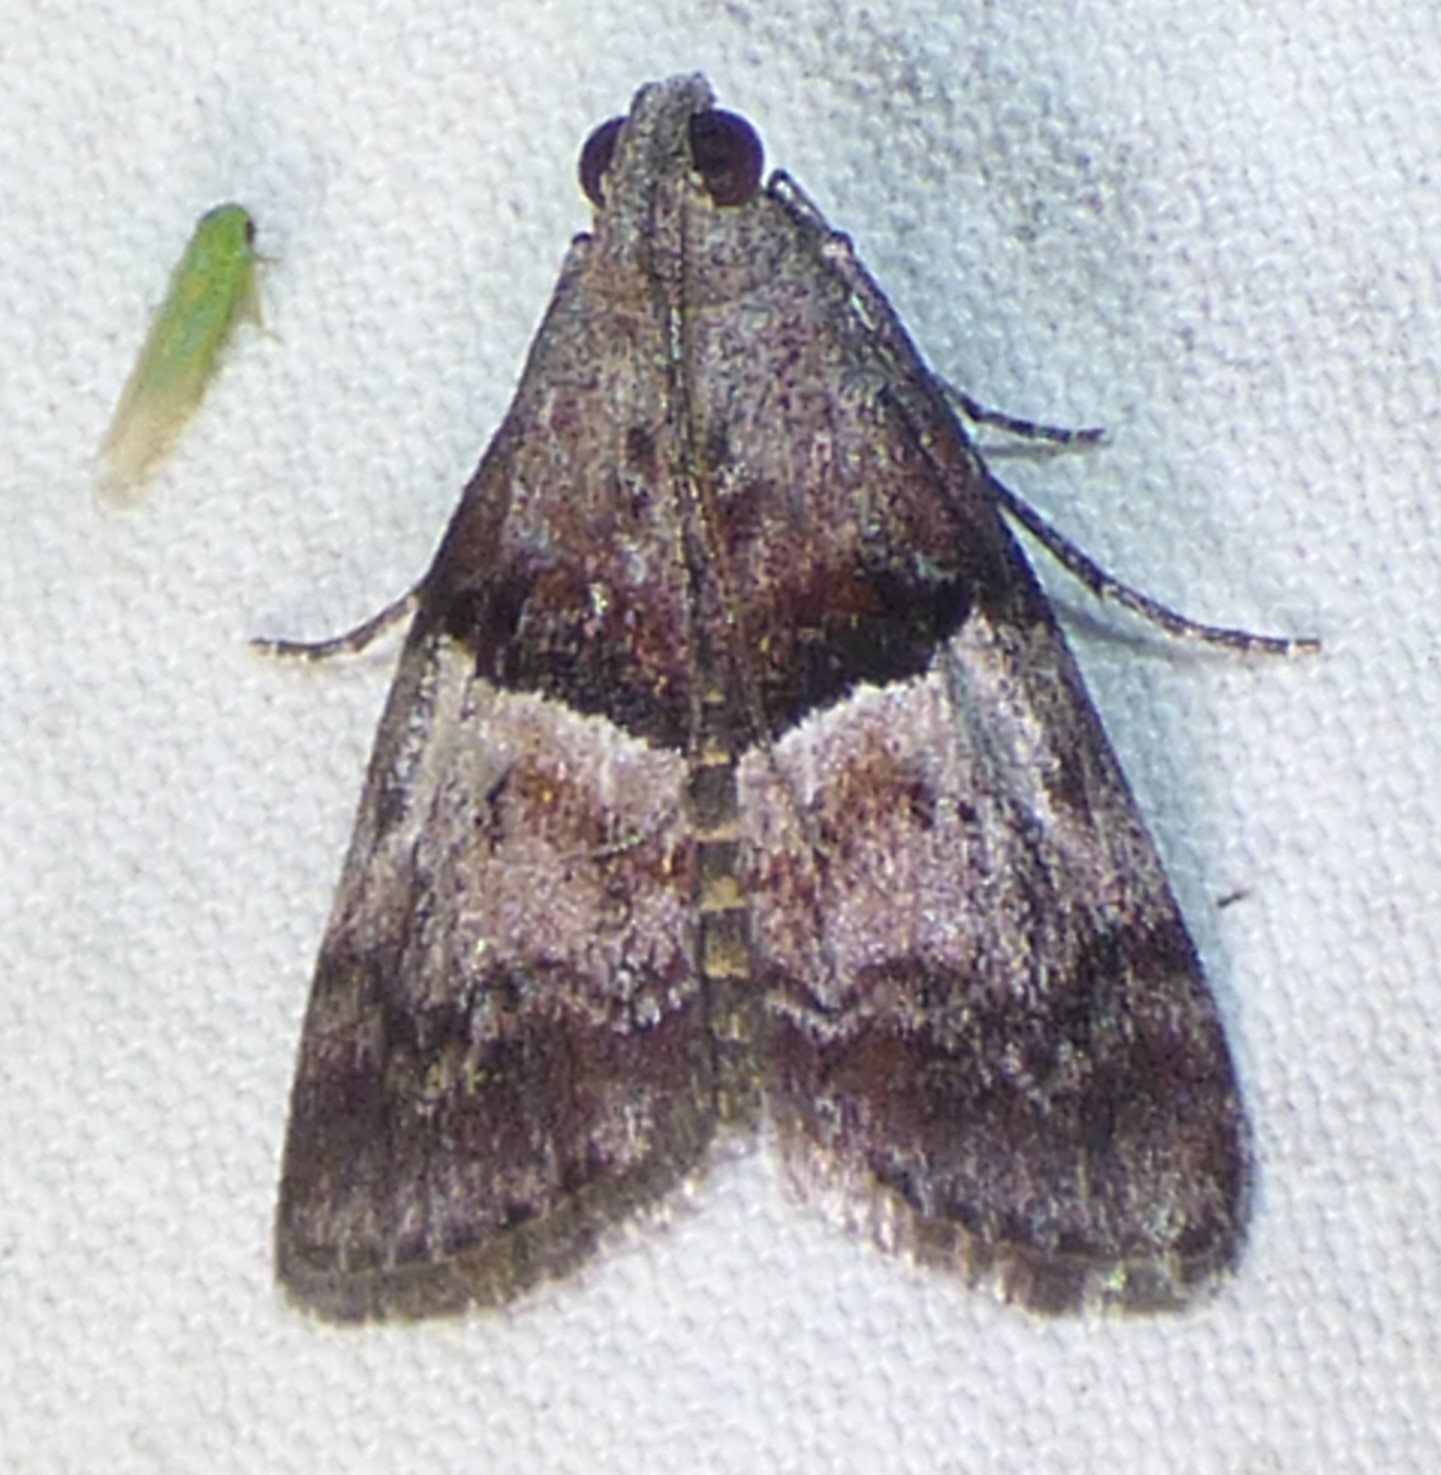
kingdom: Animalia
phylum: Arthropoda
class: Insecta
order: Lepidoptera
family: Pyralidae
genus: Pococera
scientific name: Pococera robustella
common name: Pine webworm moth
